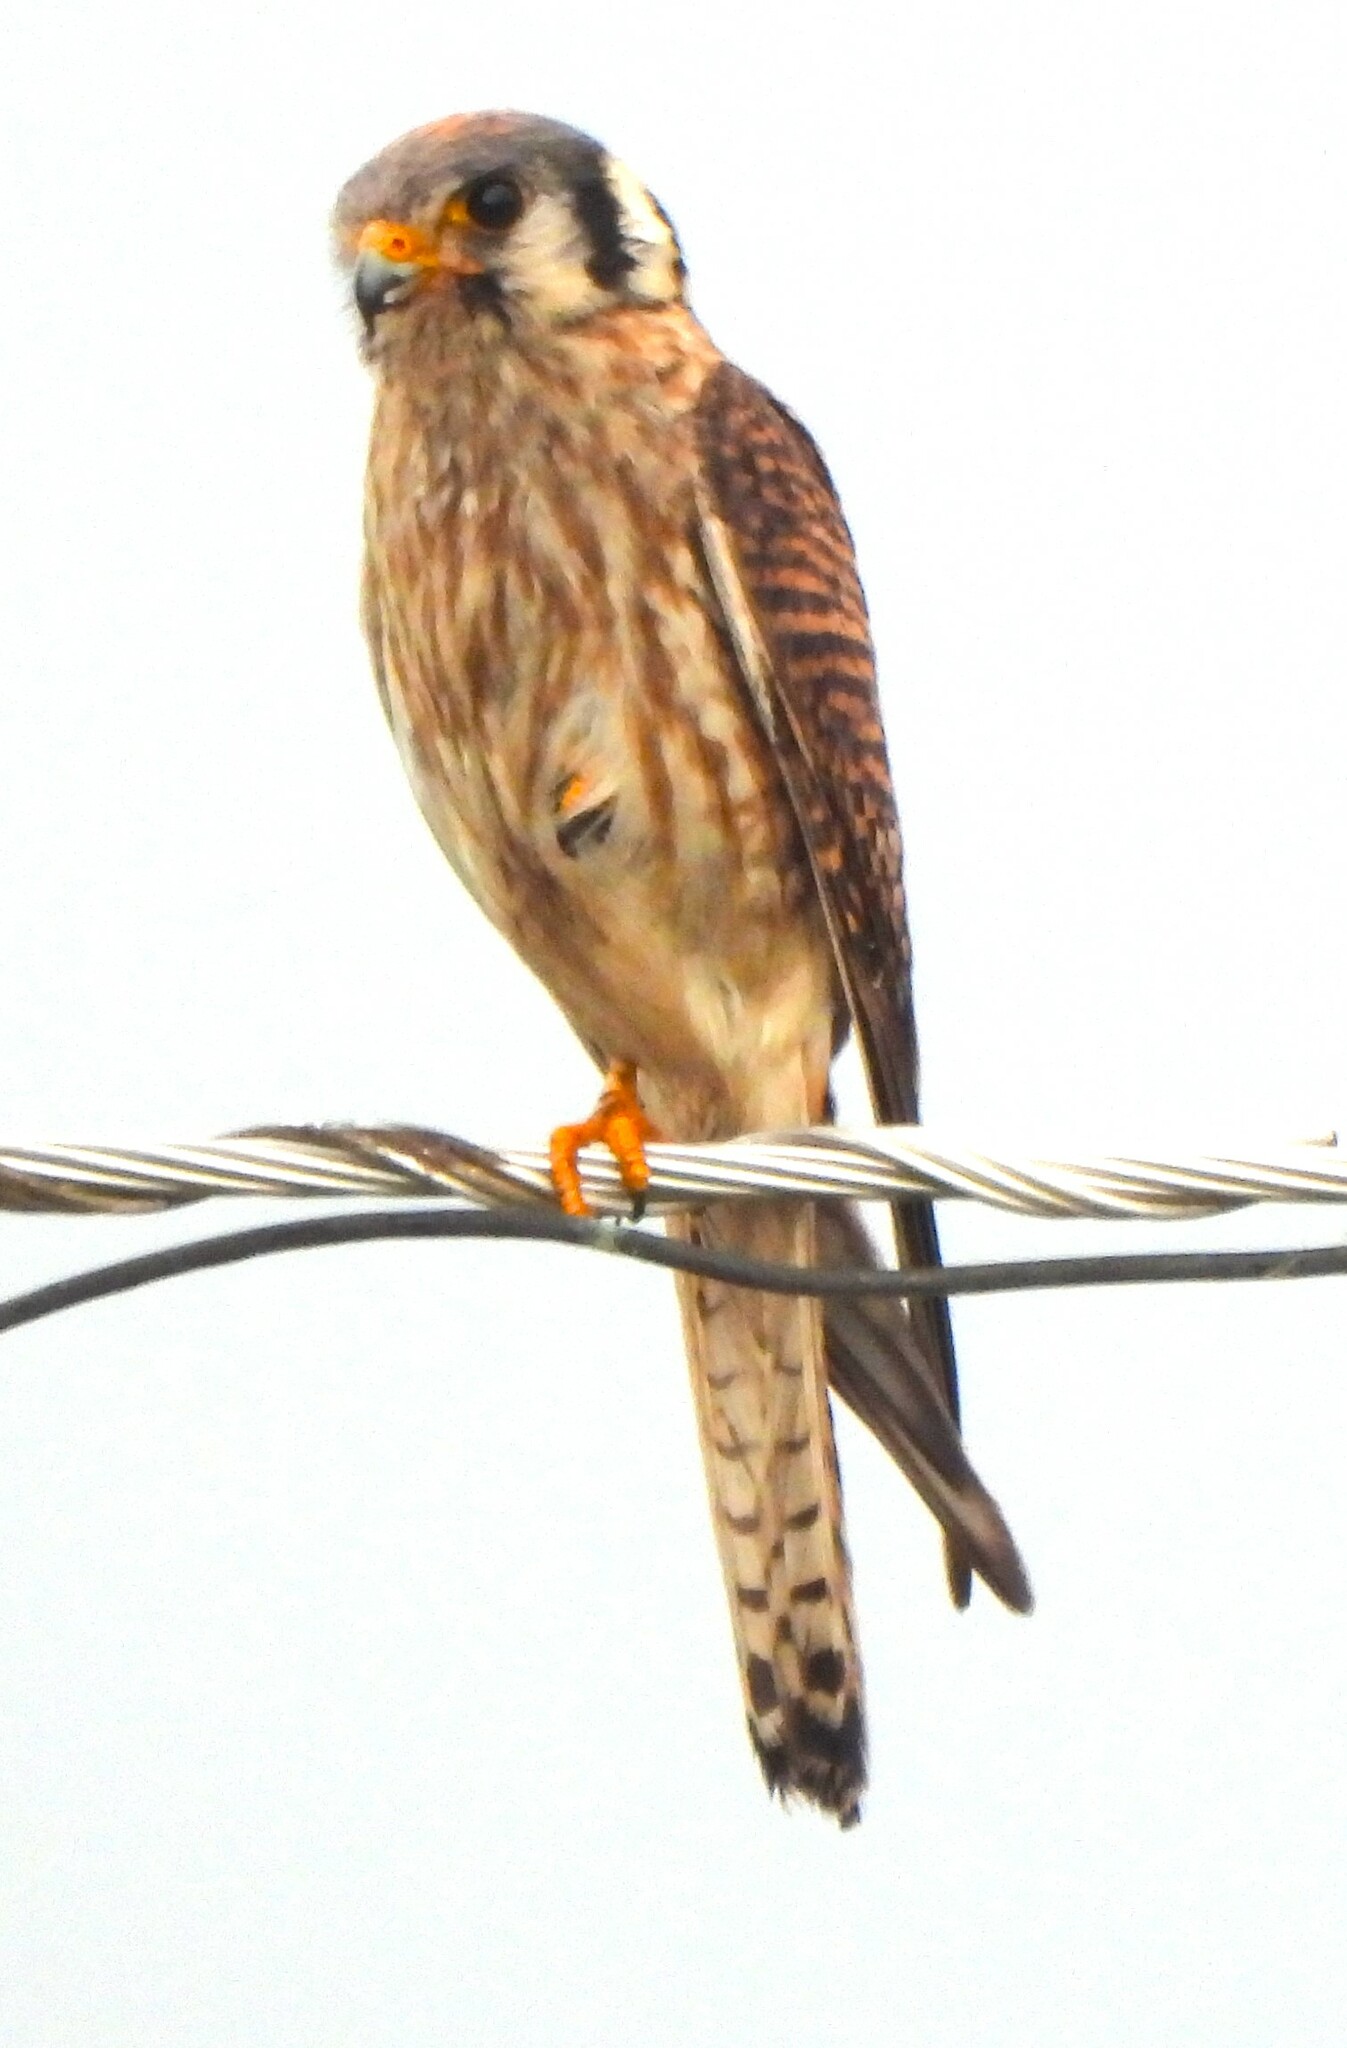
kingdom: Animalia
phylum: Chordata
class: Aves
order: Falconiformes
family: Falconidae
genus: Falco
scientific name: Falco sparverius
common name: American kestrel
